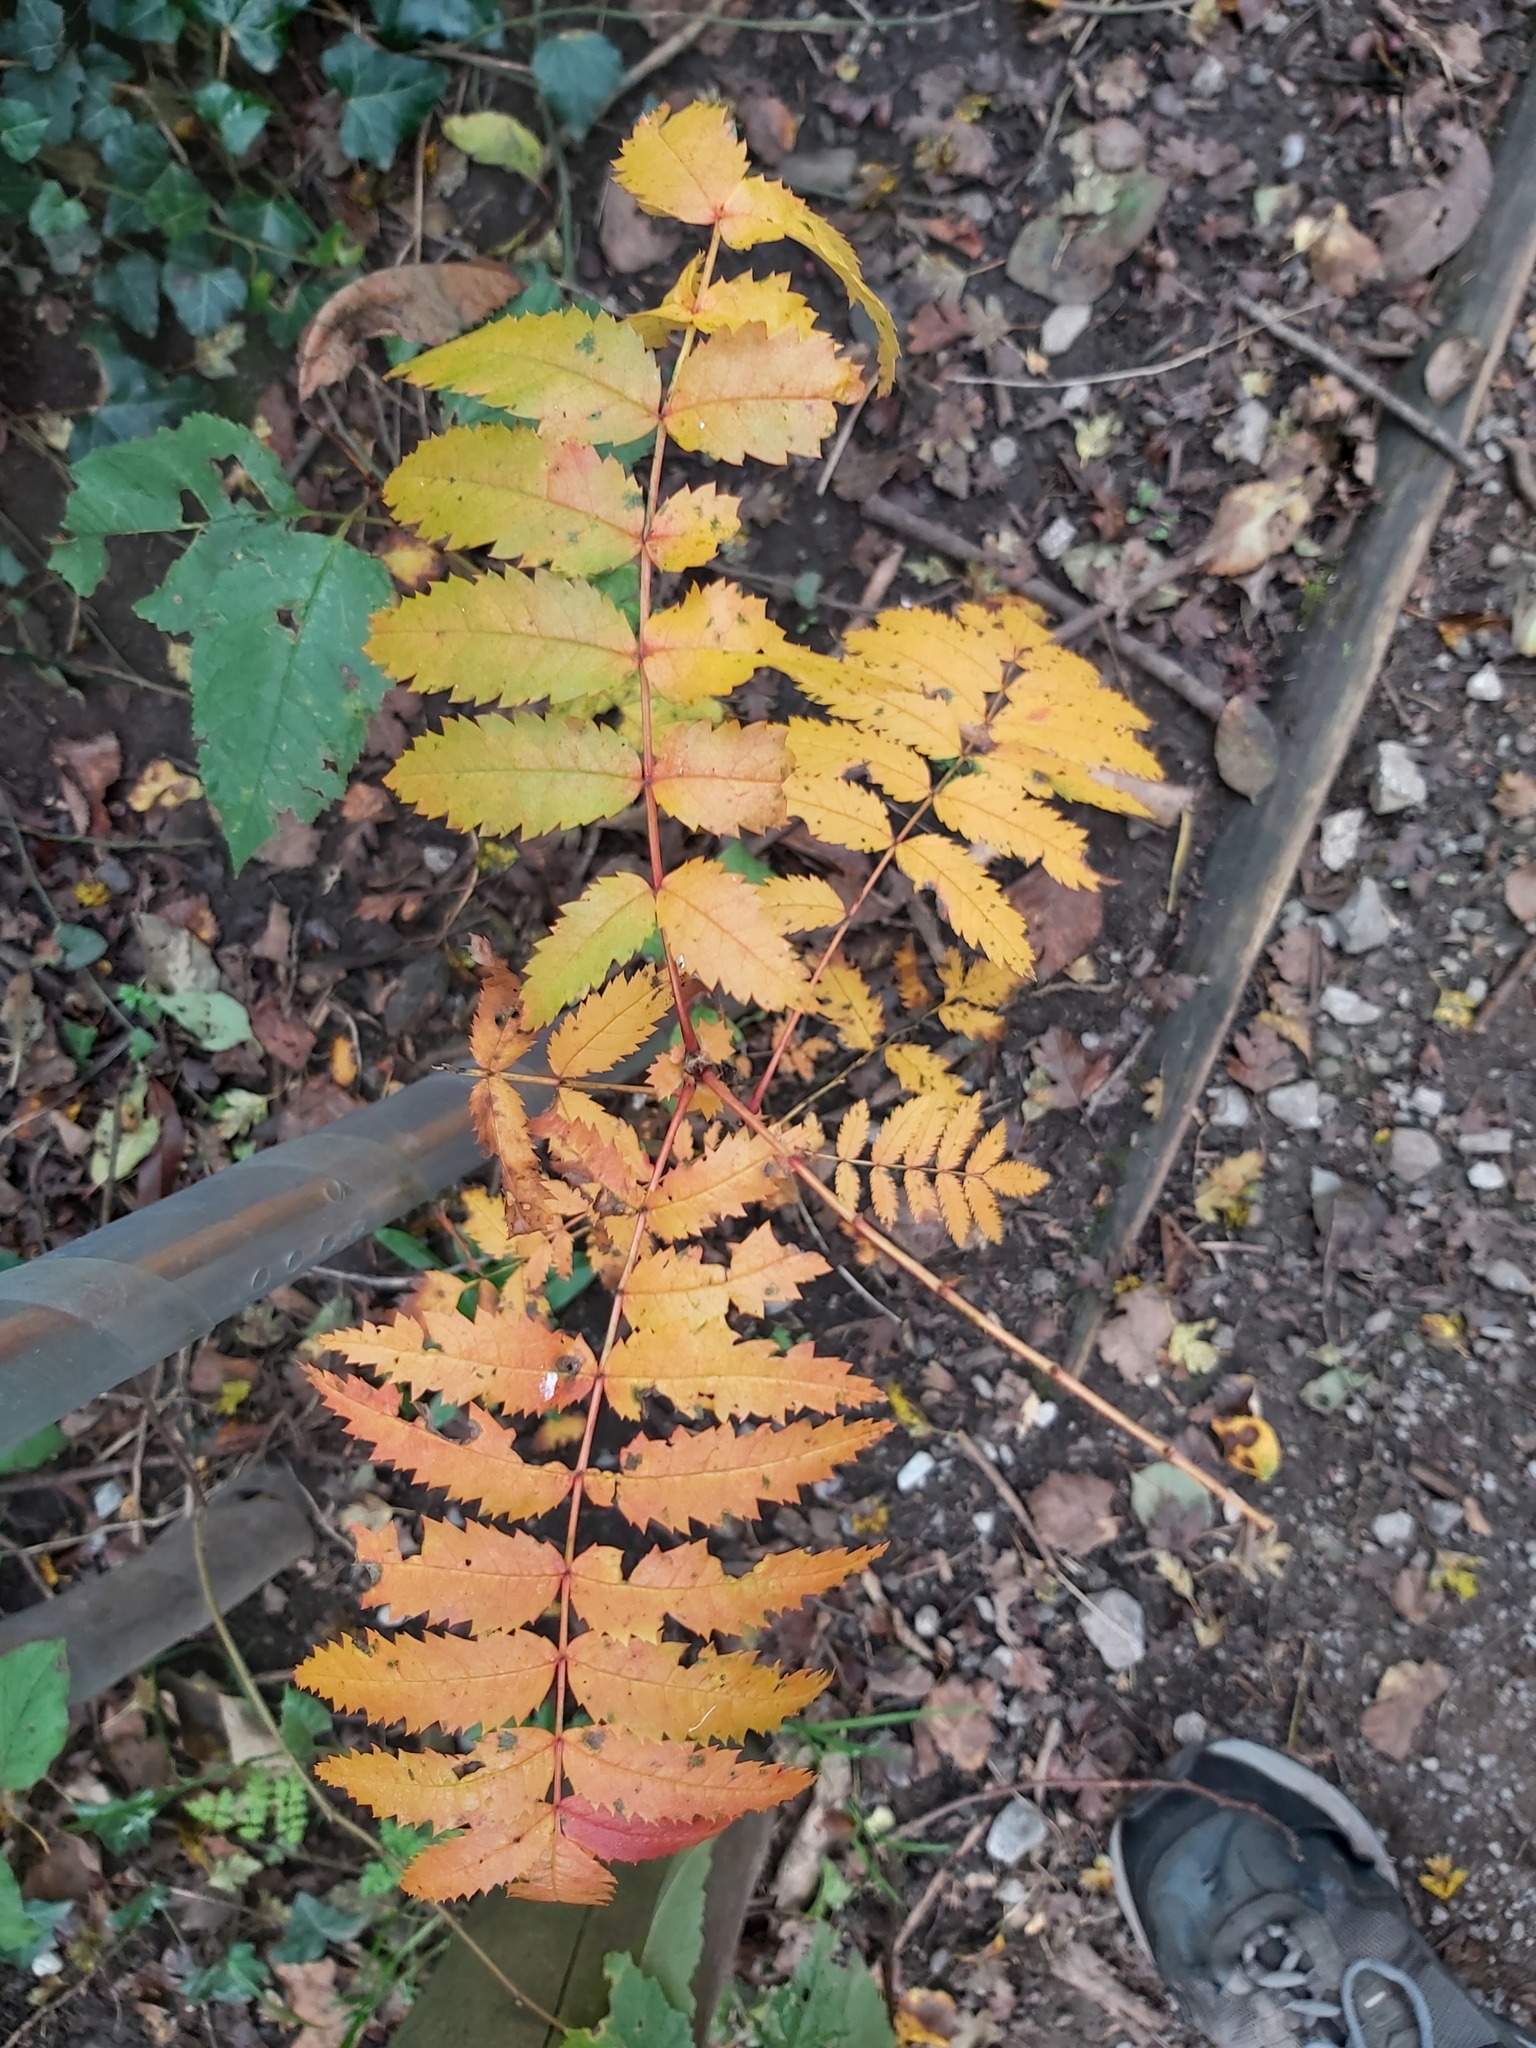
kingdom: Plantae
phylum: Tracheophyta
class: Magnoliopsida
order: Rosales
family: Rosaceae
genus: Sorbus
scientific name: Sorbus aucuparia
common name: Rowan
